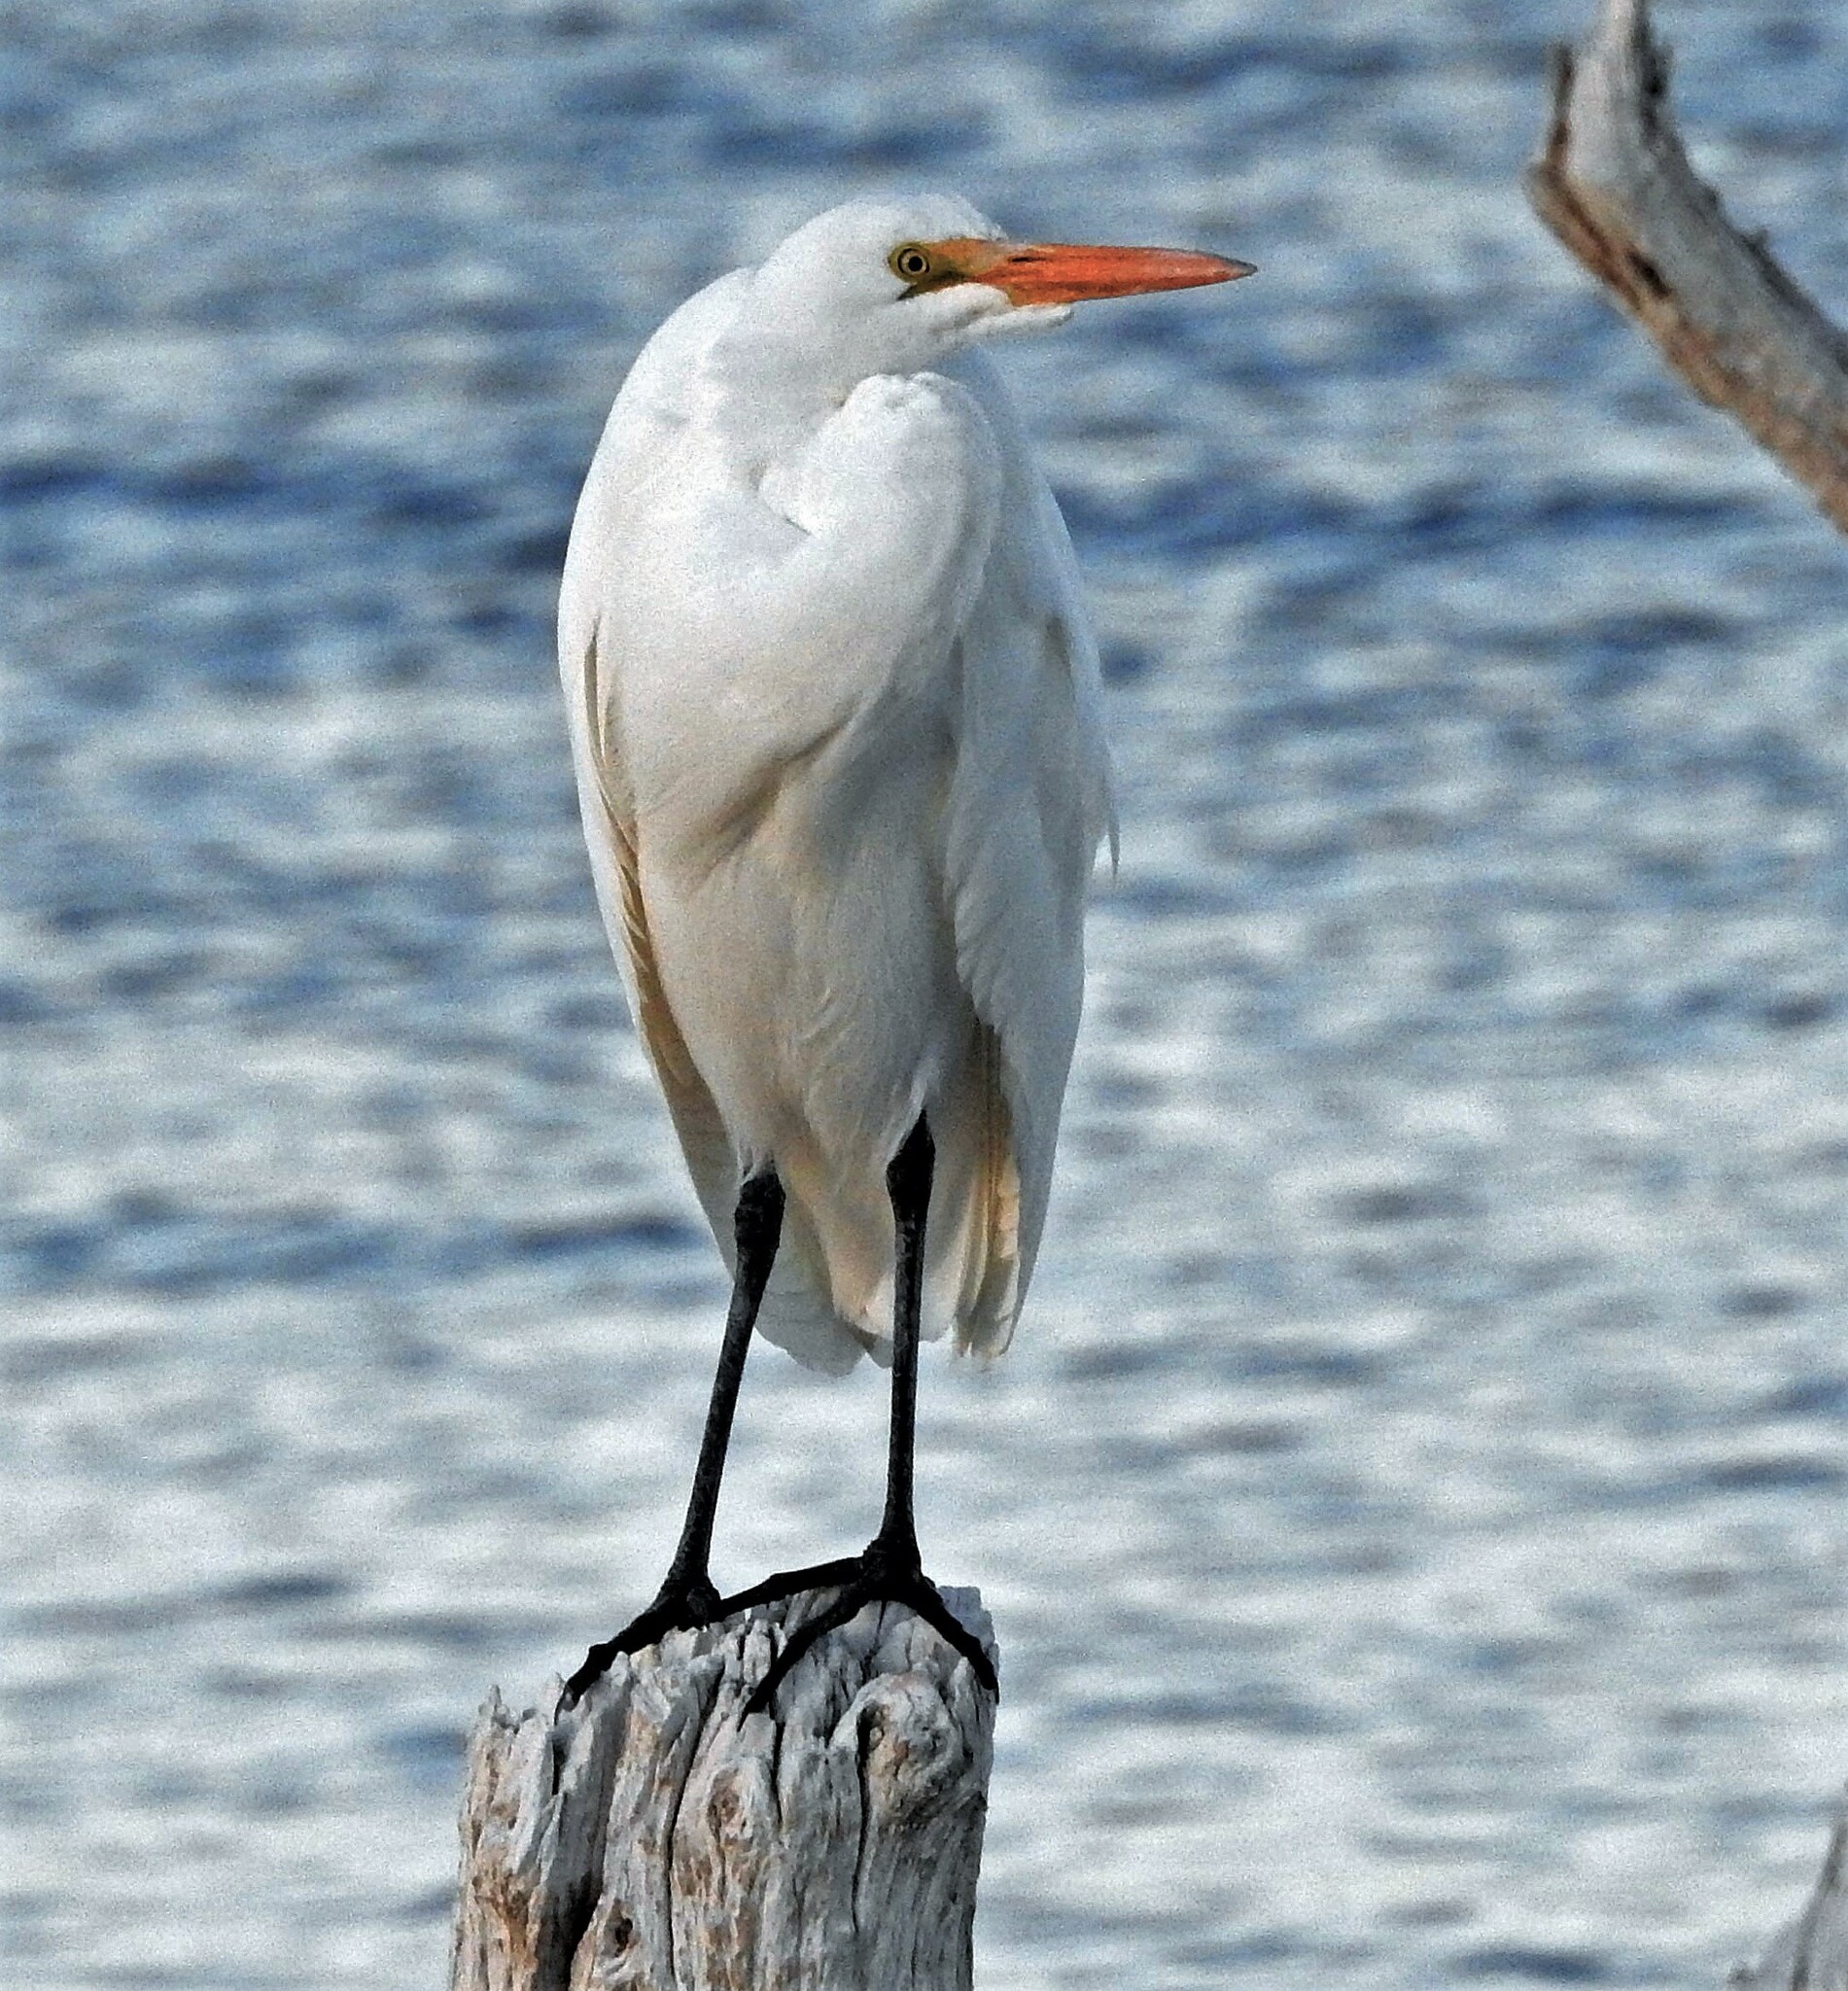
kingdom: Animalia
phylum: Chordata
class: Aves
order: Pelecaniformes
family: Ardeidae
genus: Ardea
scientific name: Ardea alba
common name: Great egret
